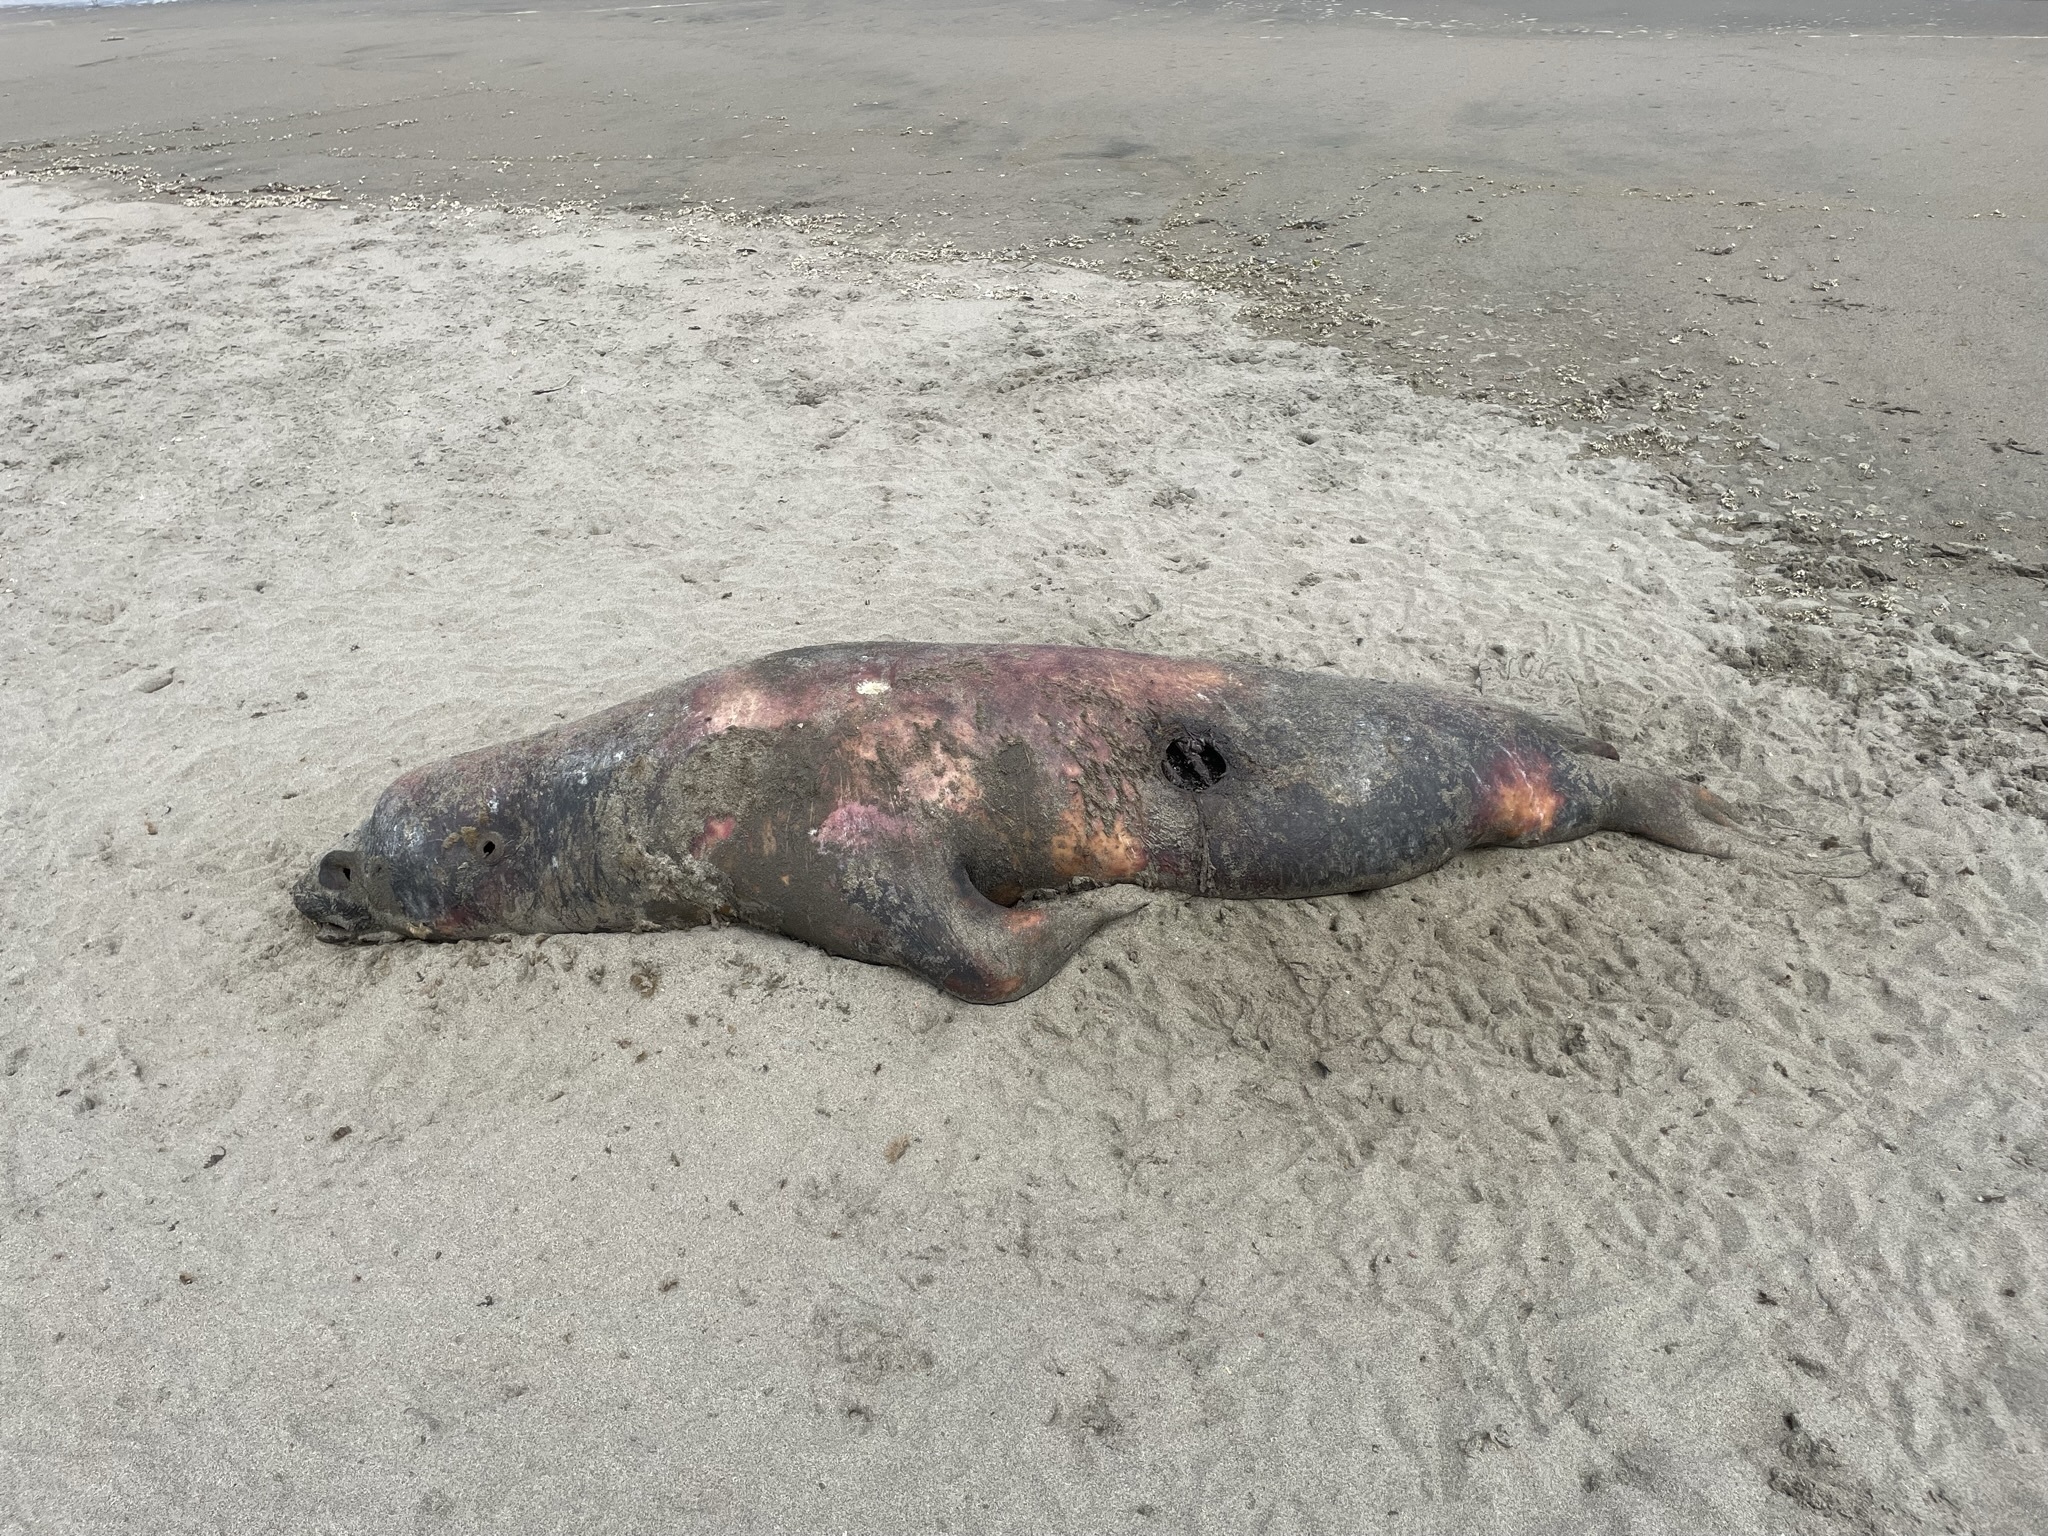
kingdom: Animalia
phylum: Chordata
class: Mammalia
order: Carnivora
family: Otariidae
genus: Otaria
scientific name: Otaria byronia
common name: South american sea lion
